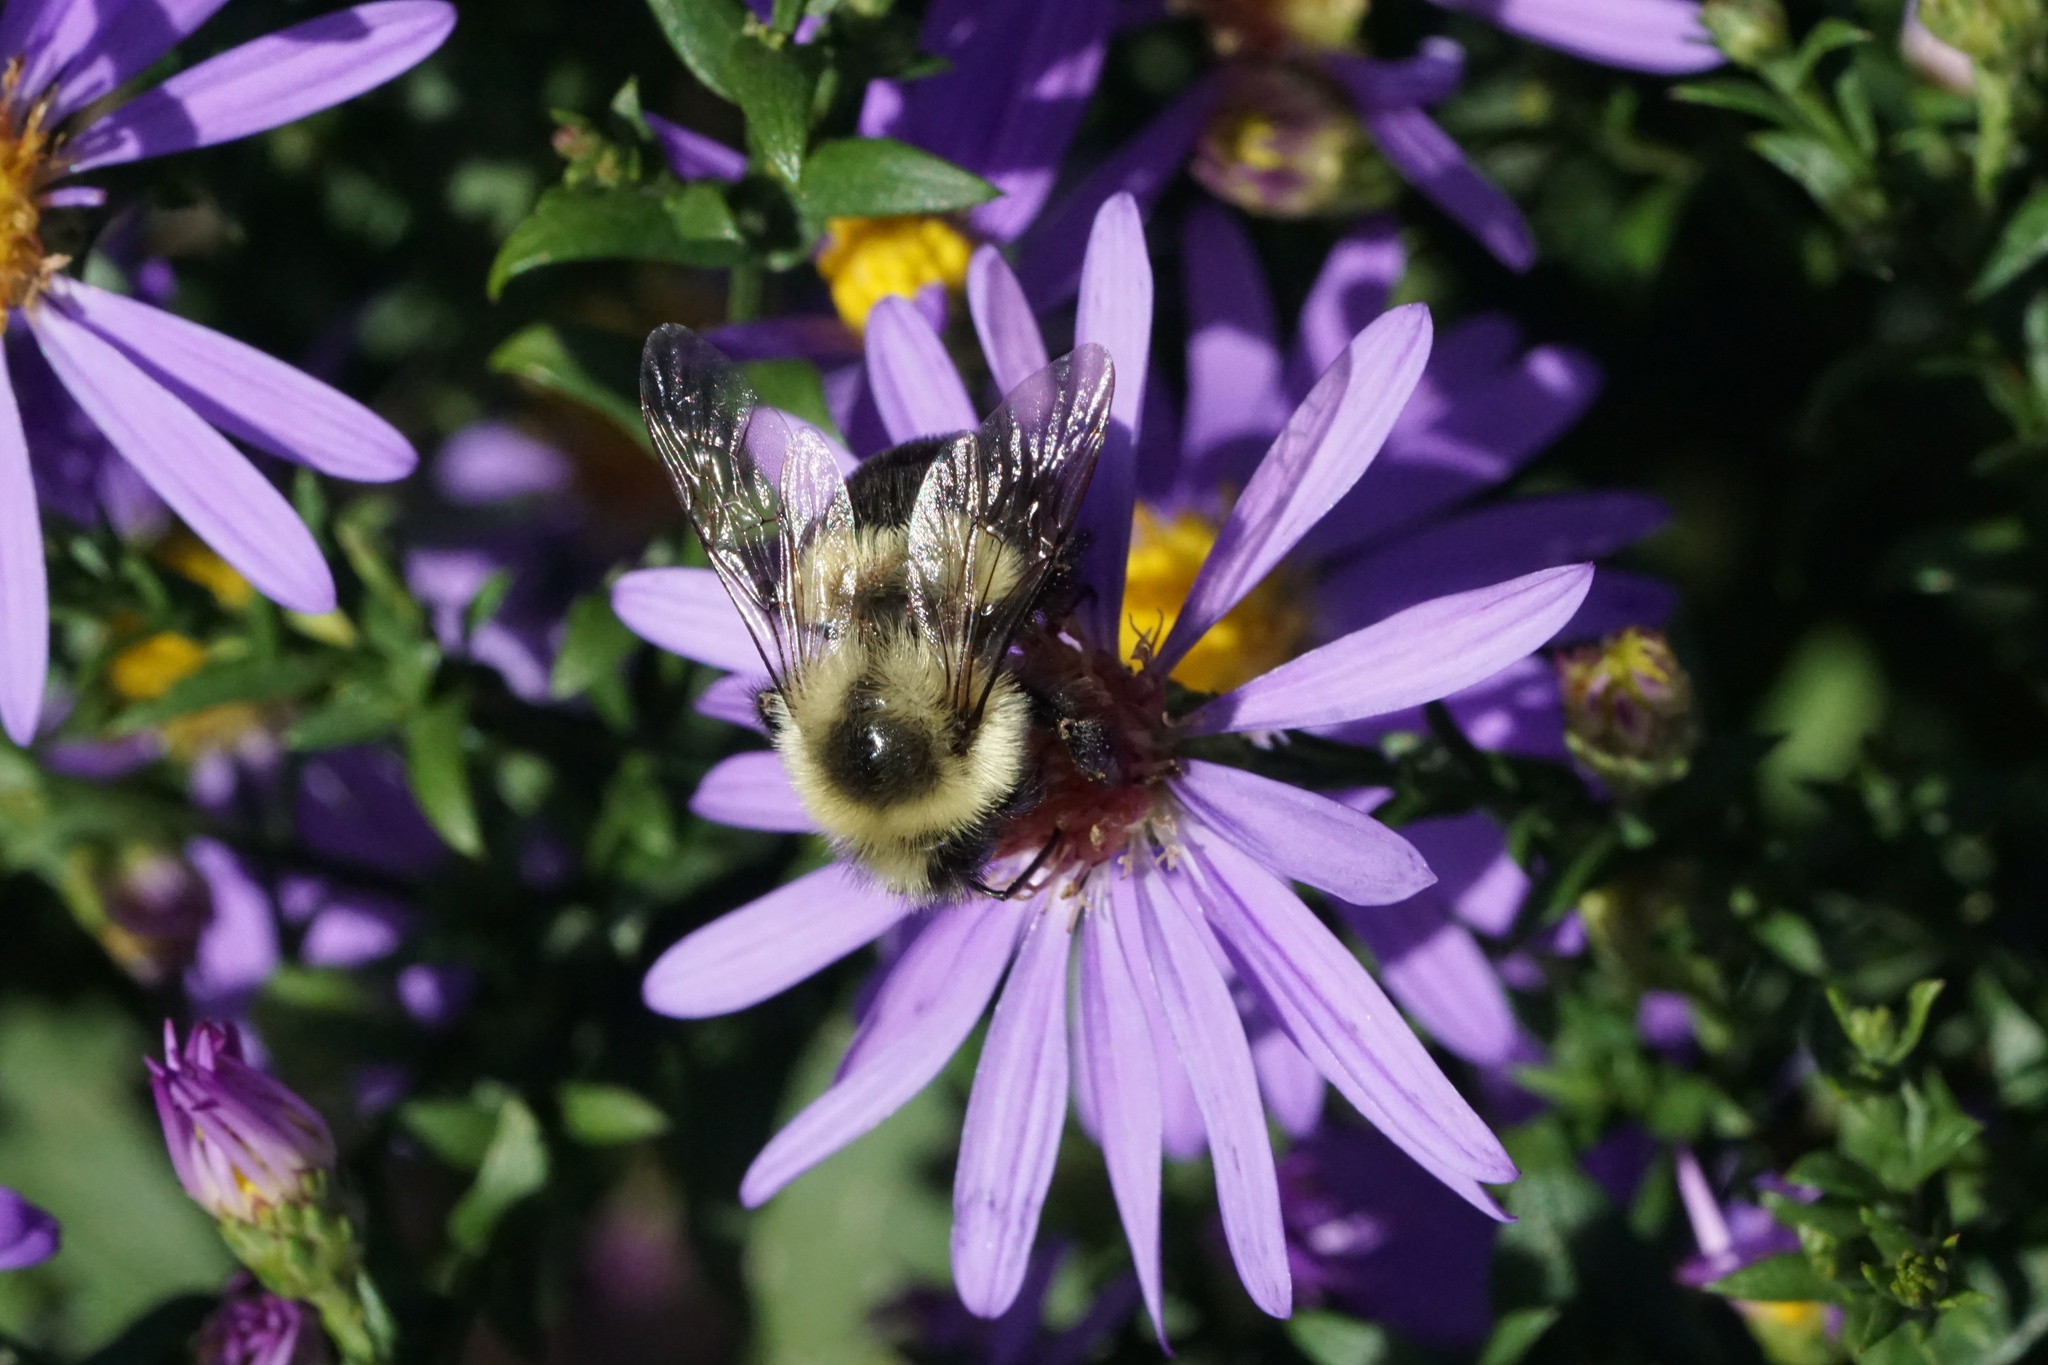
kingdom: Animalia
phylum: Arthropoda
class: Insecta
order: Hymenoptera
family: Apidae
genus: Bombus
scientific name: Bombus impatiens
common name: Common eastern bumble bee
